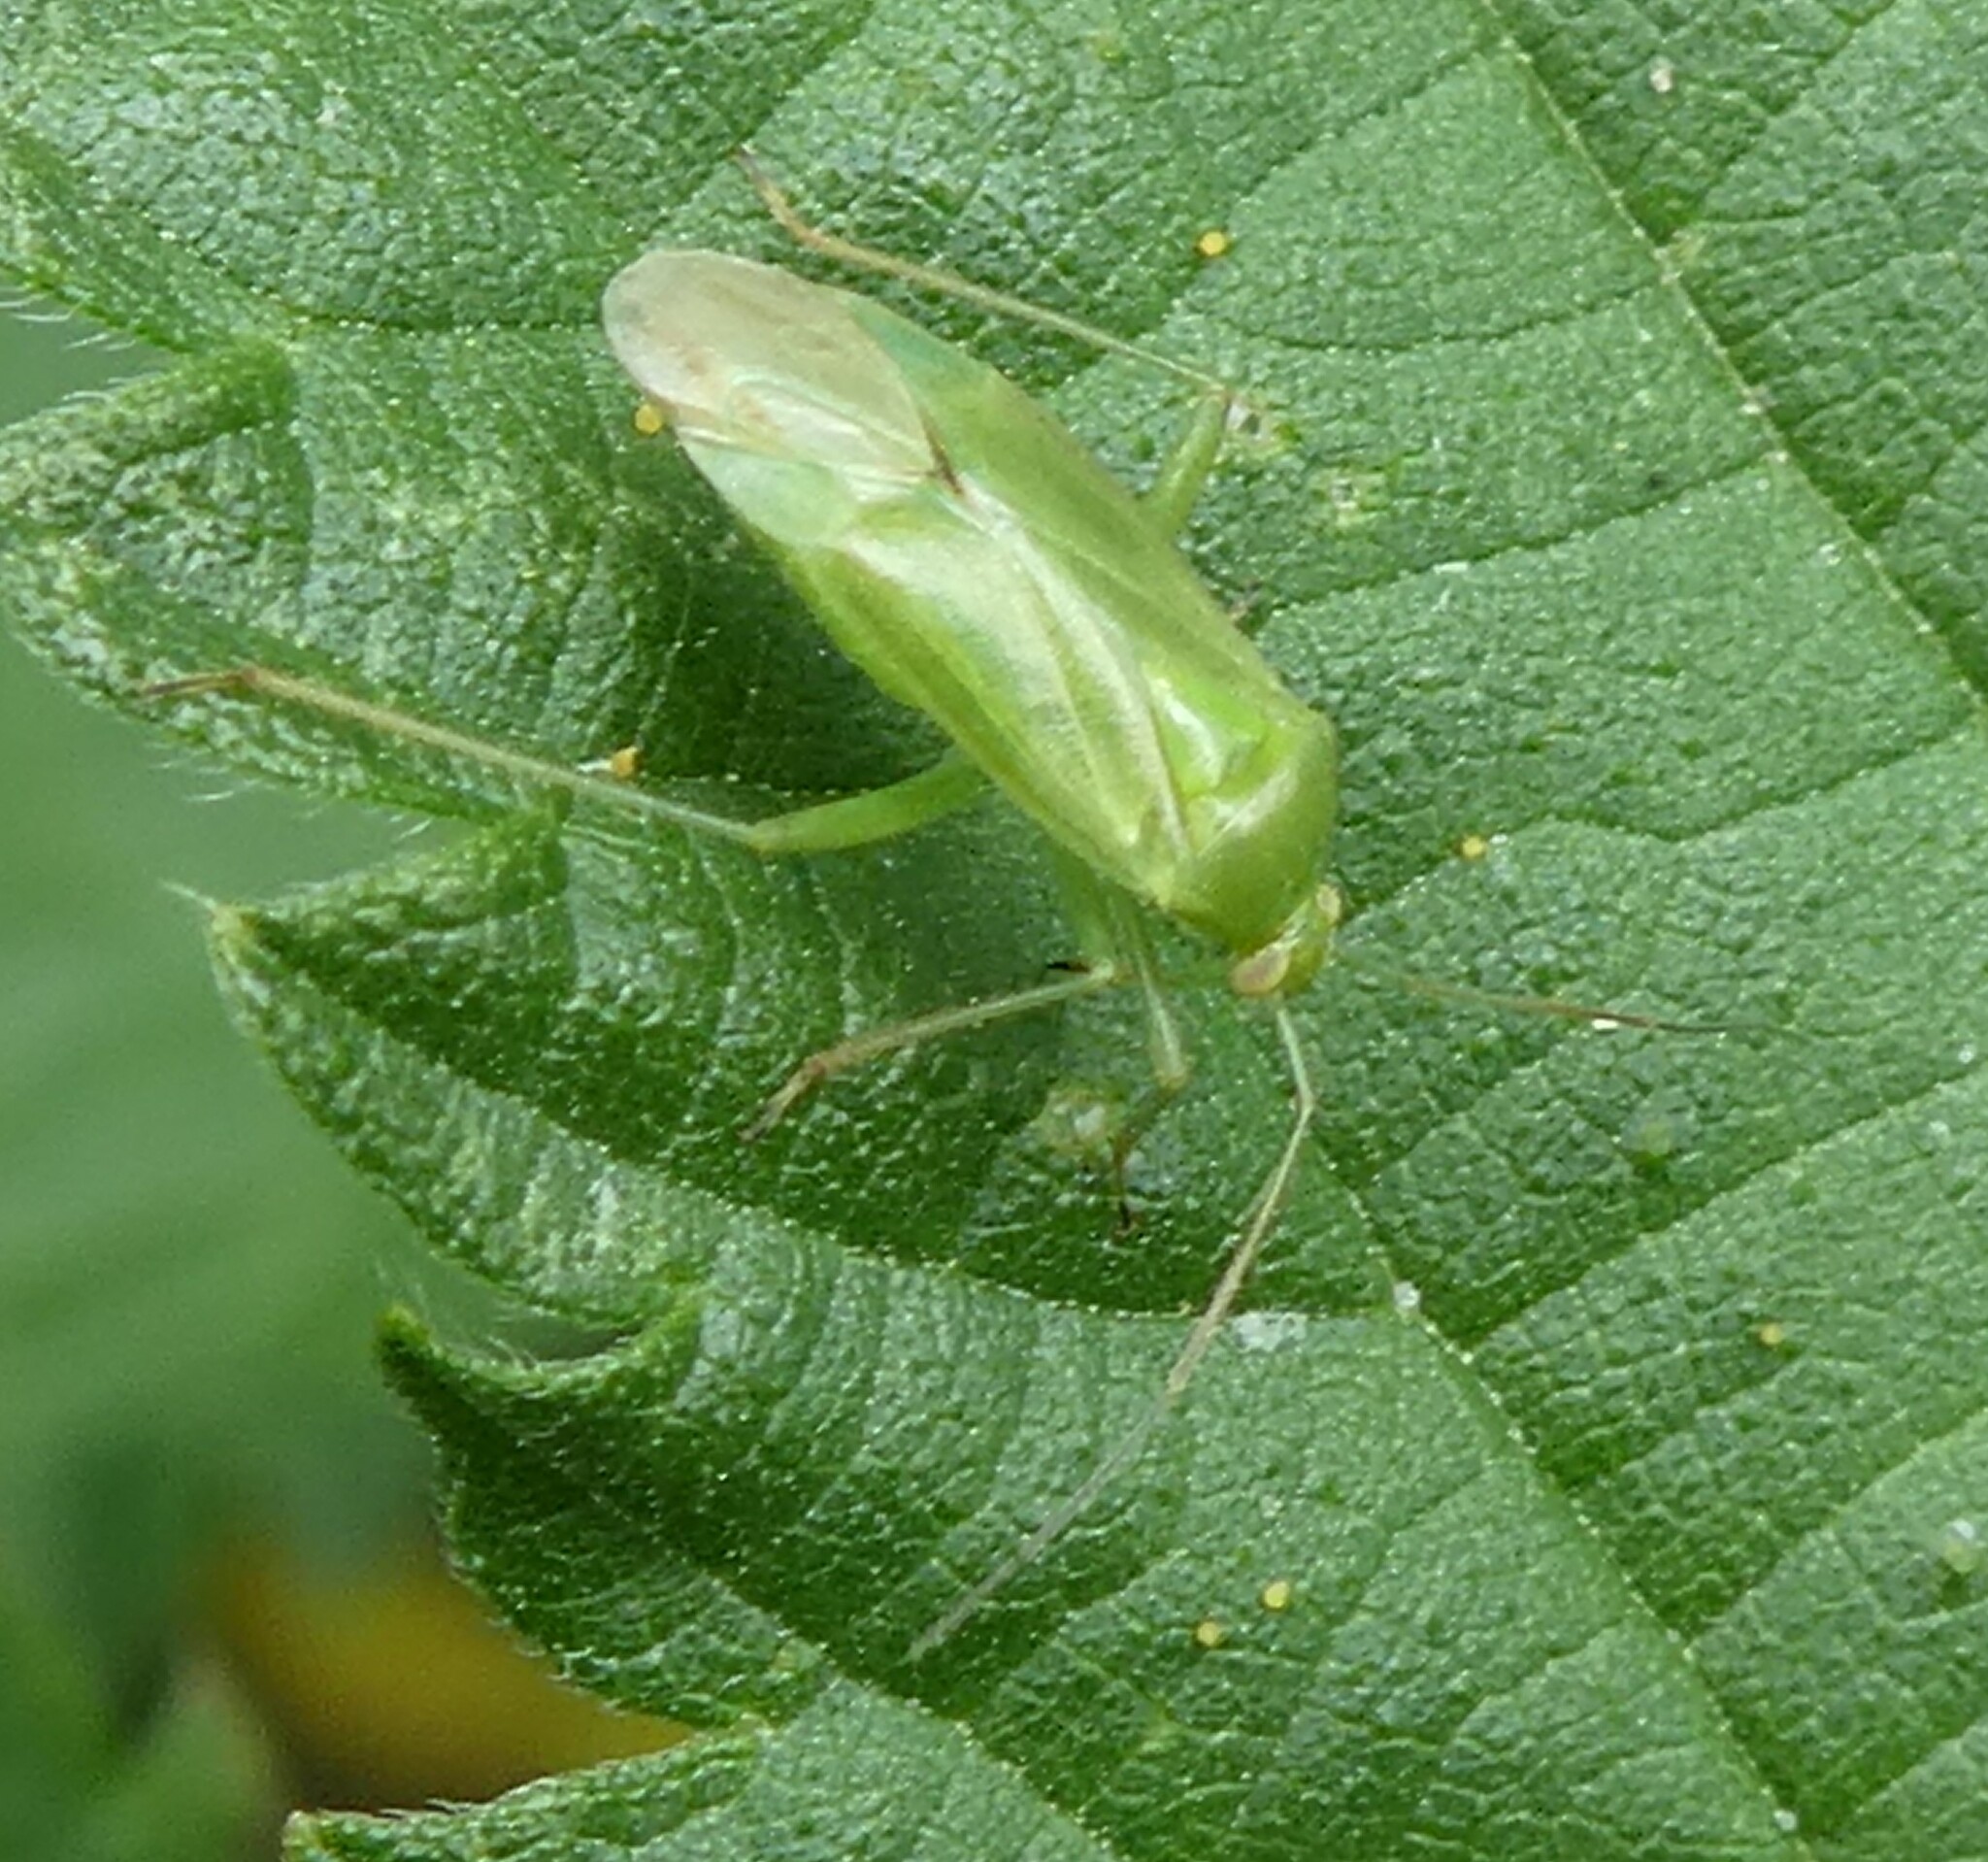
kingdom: Animalia
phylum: Arthropoda
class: Insecta
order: Hemiptera
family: Miridae
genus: Lygocoris
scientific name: Lygocoris pabulinus
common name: Common green capsid
